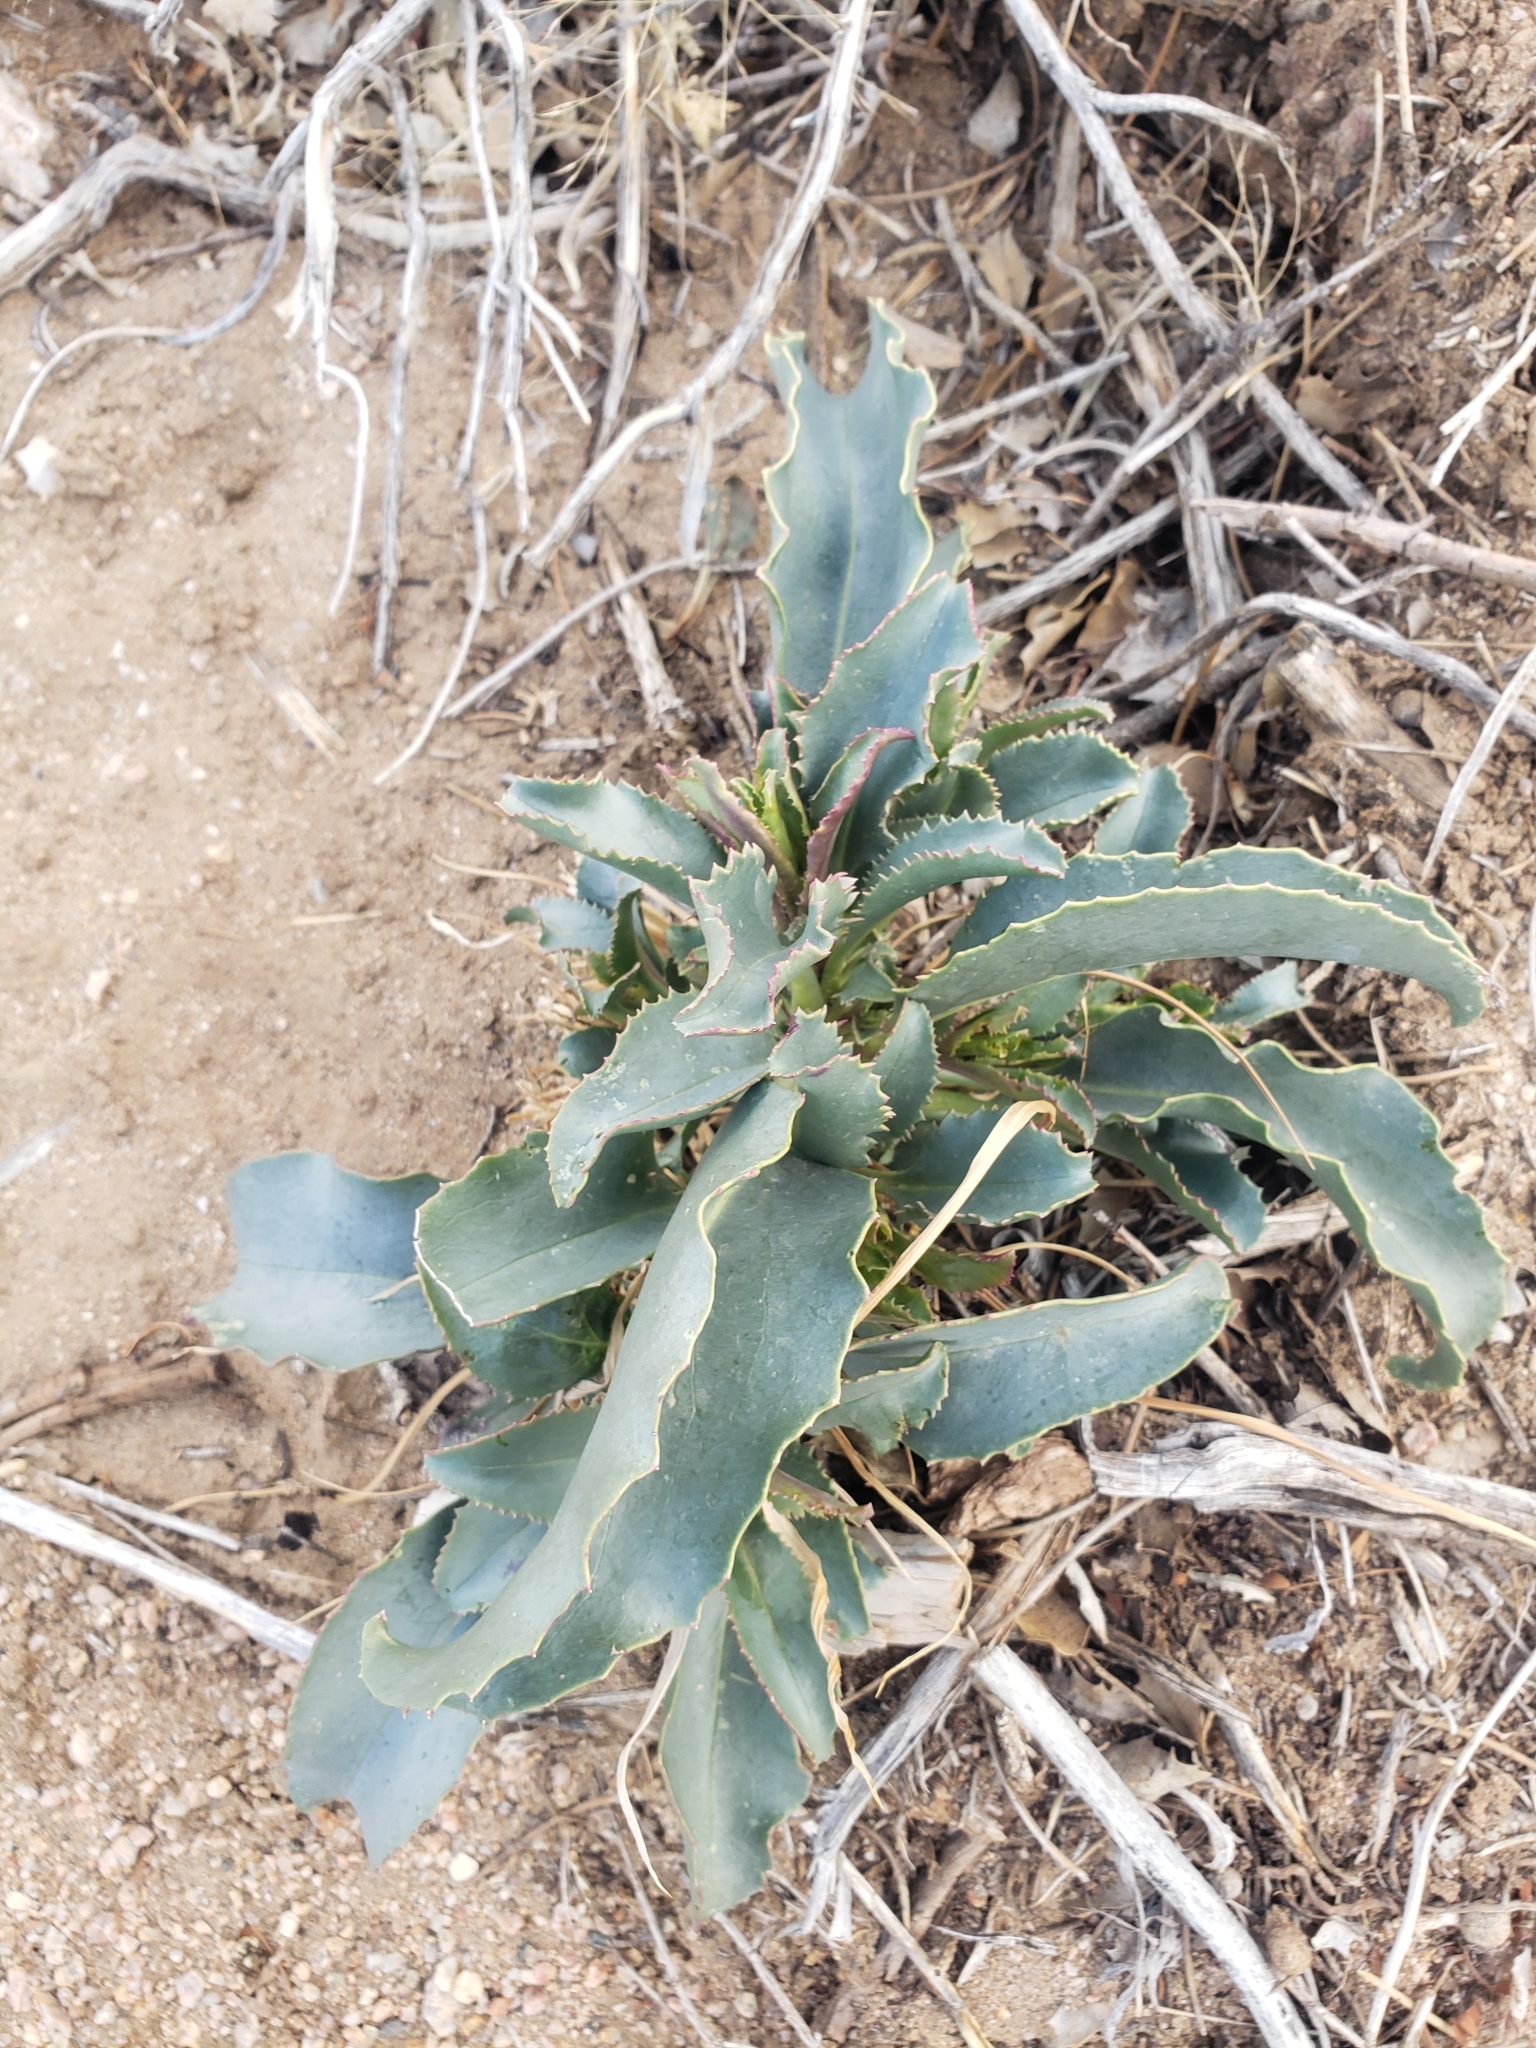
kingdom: Plantae
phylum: Tracheophyta
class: Magnoliopsida
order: Lamiales
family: Plantaginaceae
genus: Penstemon
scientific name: Penstemon palmeri
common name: Palmer penstemon
